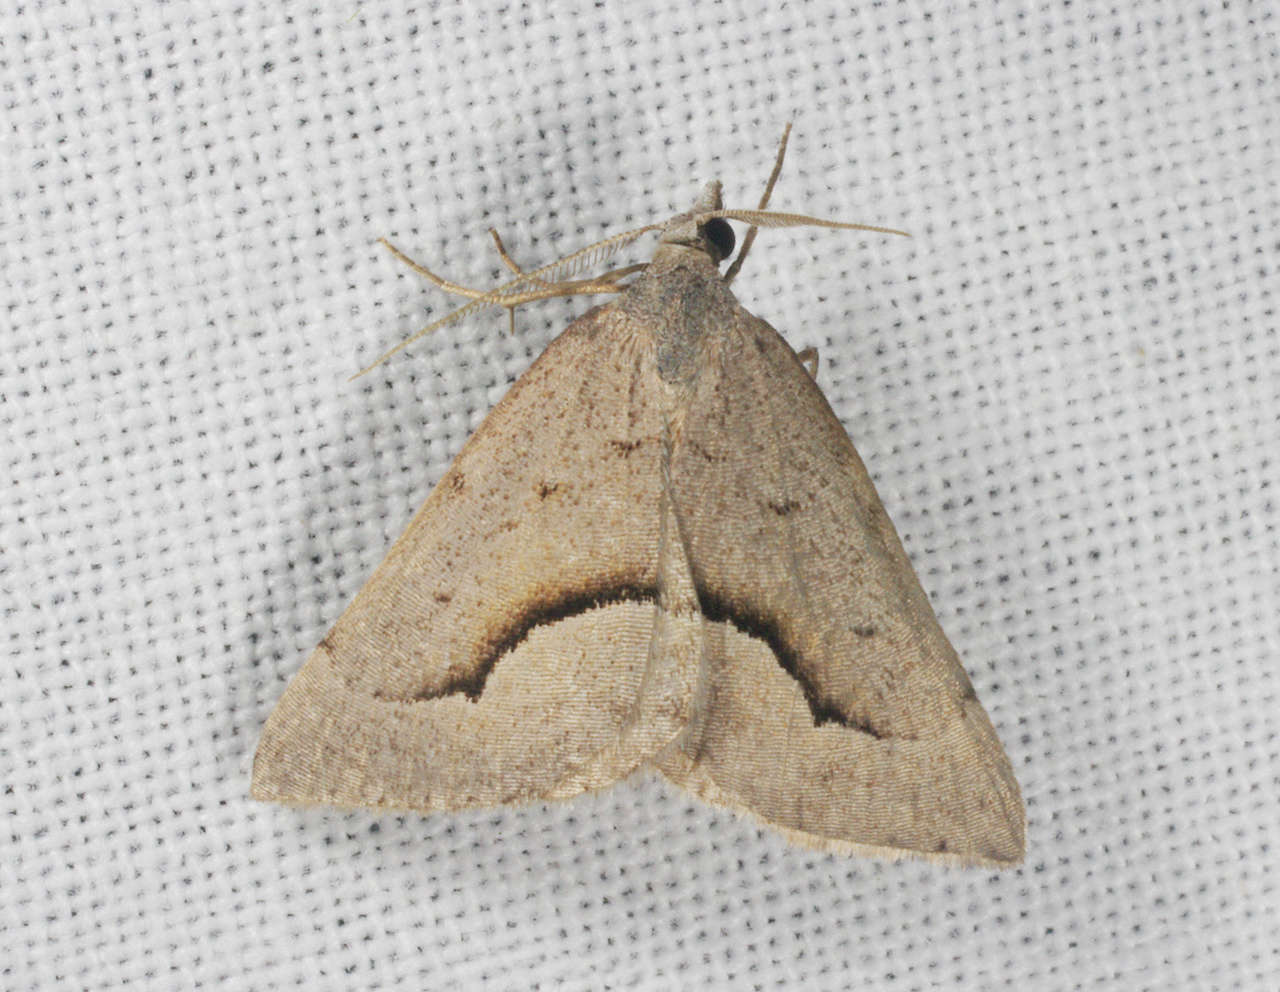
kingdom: Animalia
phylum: Arthropoda
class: Insecta
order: Lepidoptera
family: Geometridae
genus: Dichromodes
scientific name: Dichromodes euscia
